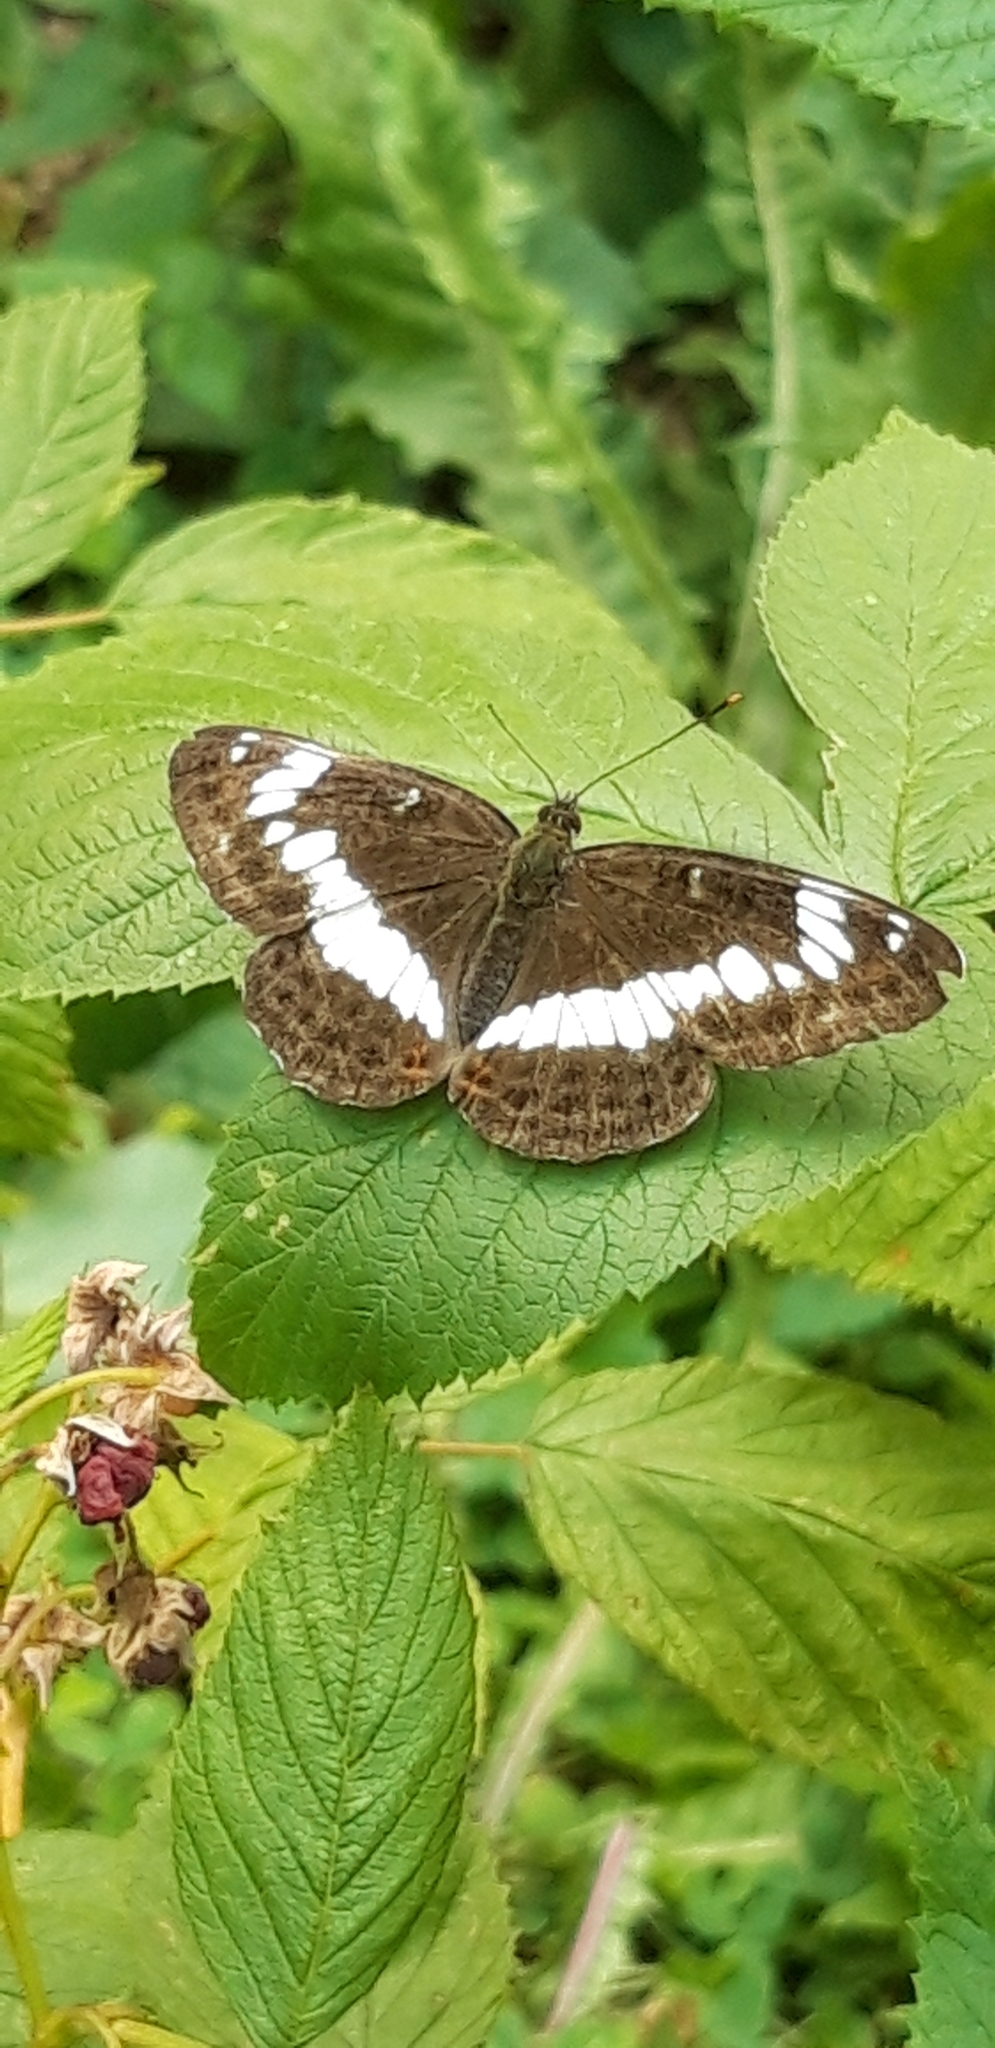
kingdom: Animalia
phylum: Arthropoda
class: Insecta
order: Lepidoptera
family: Nymphalidae
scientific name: Nymphalidae
